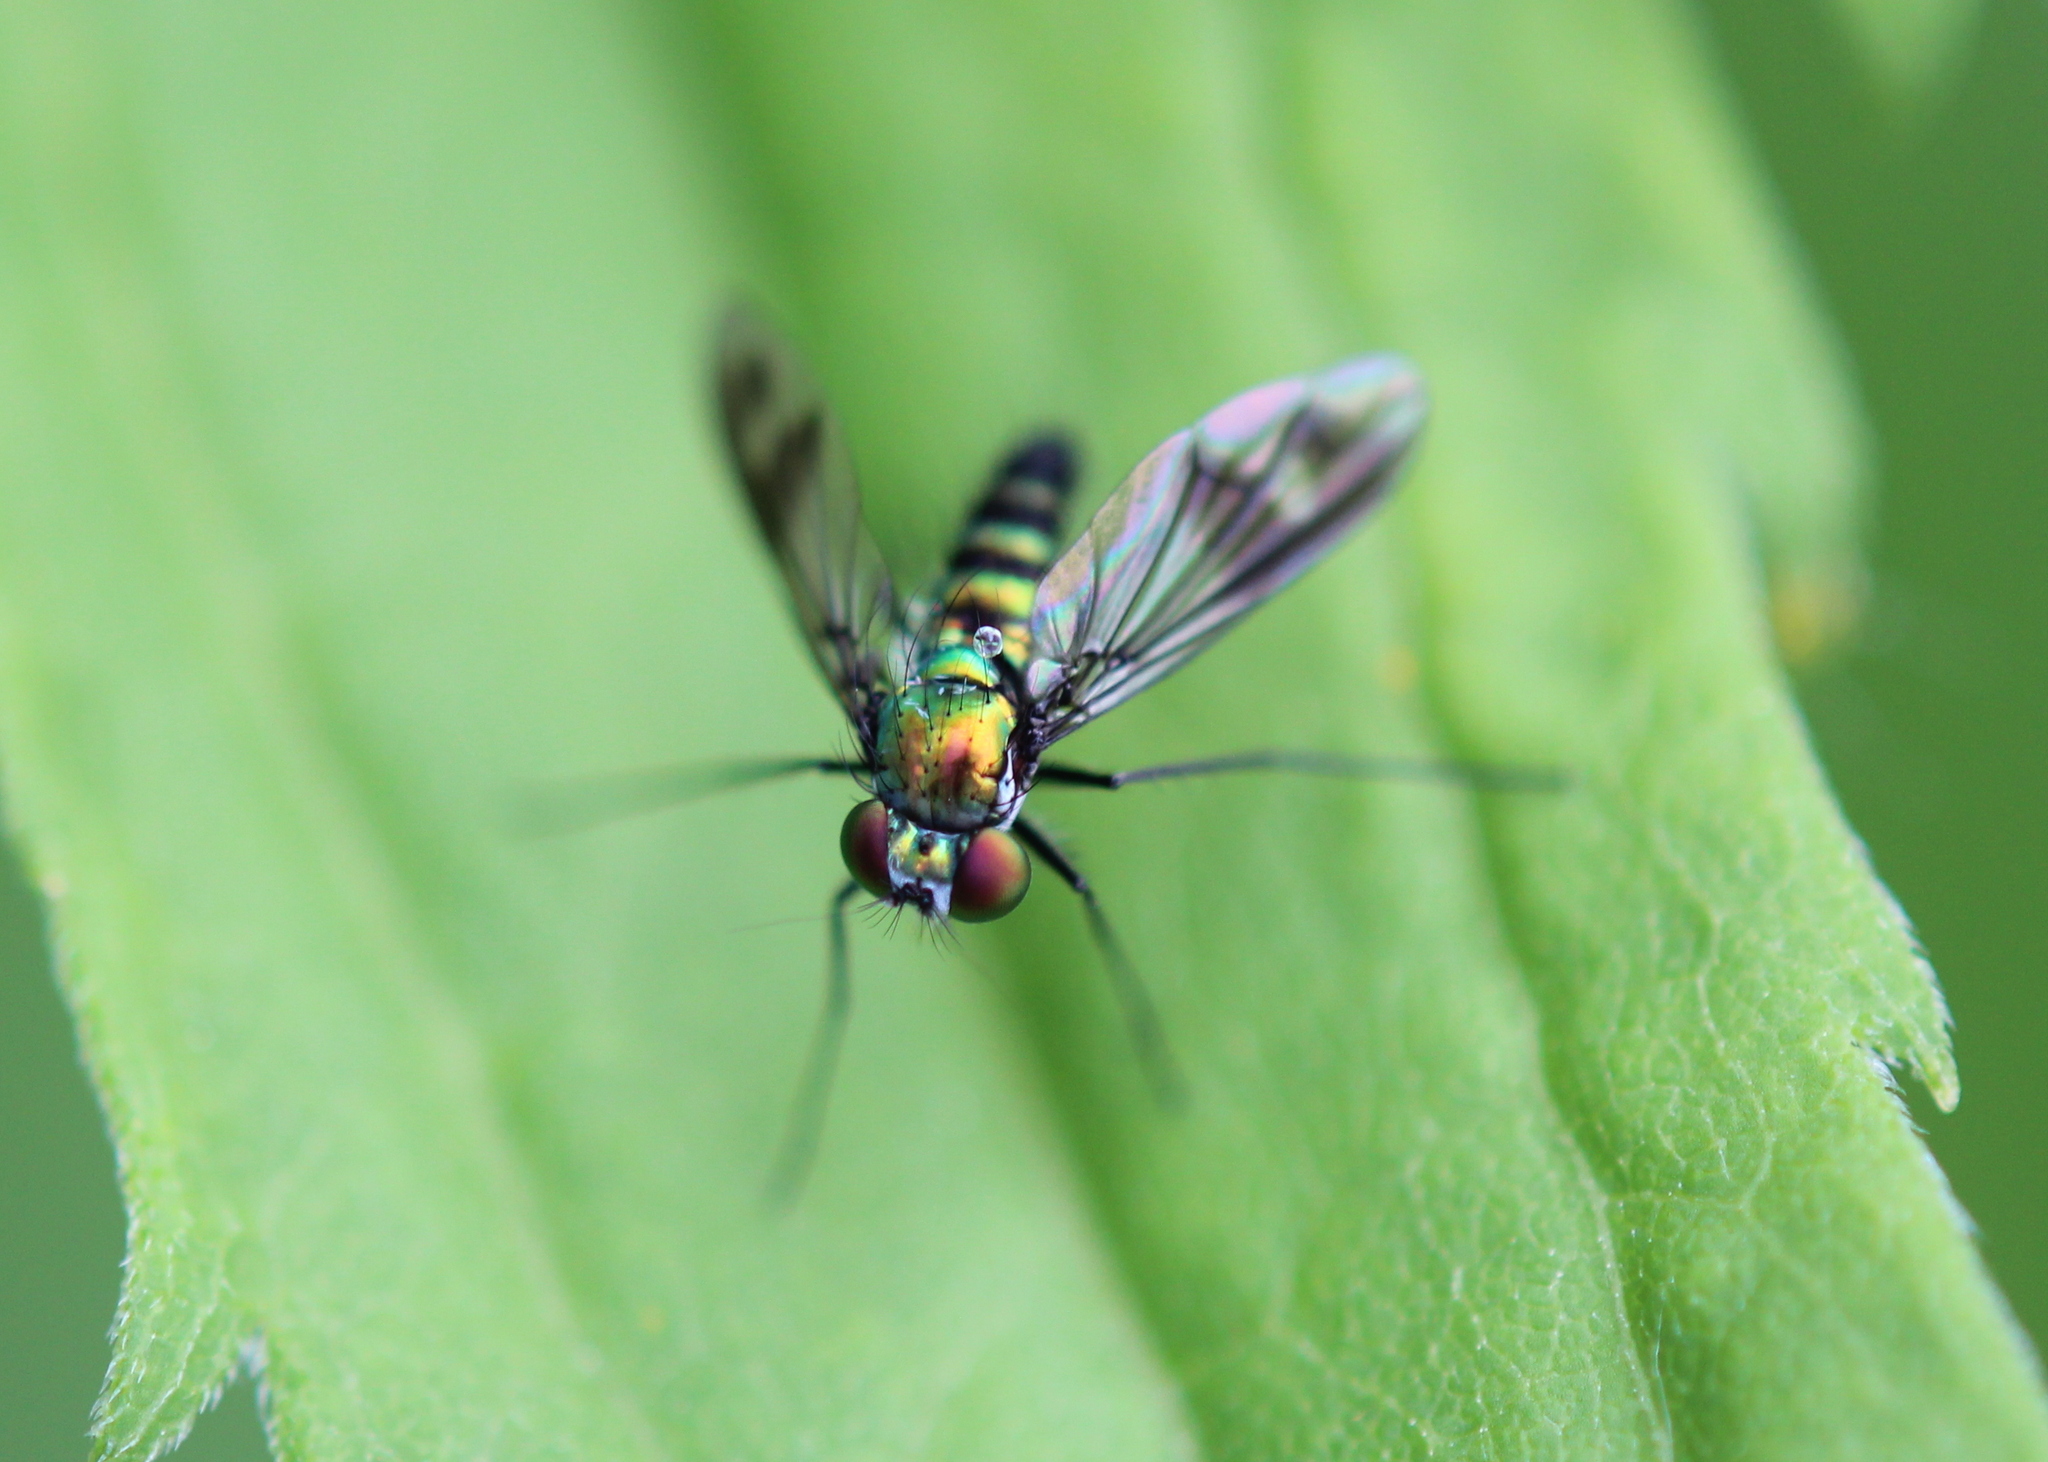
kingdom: Animalia
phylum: Arthropoda
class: Insecta
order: Diptera
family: Dolichopodidae
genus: Condylostylus
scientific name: Condylostylus patibulatus
